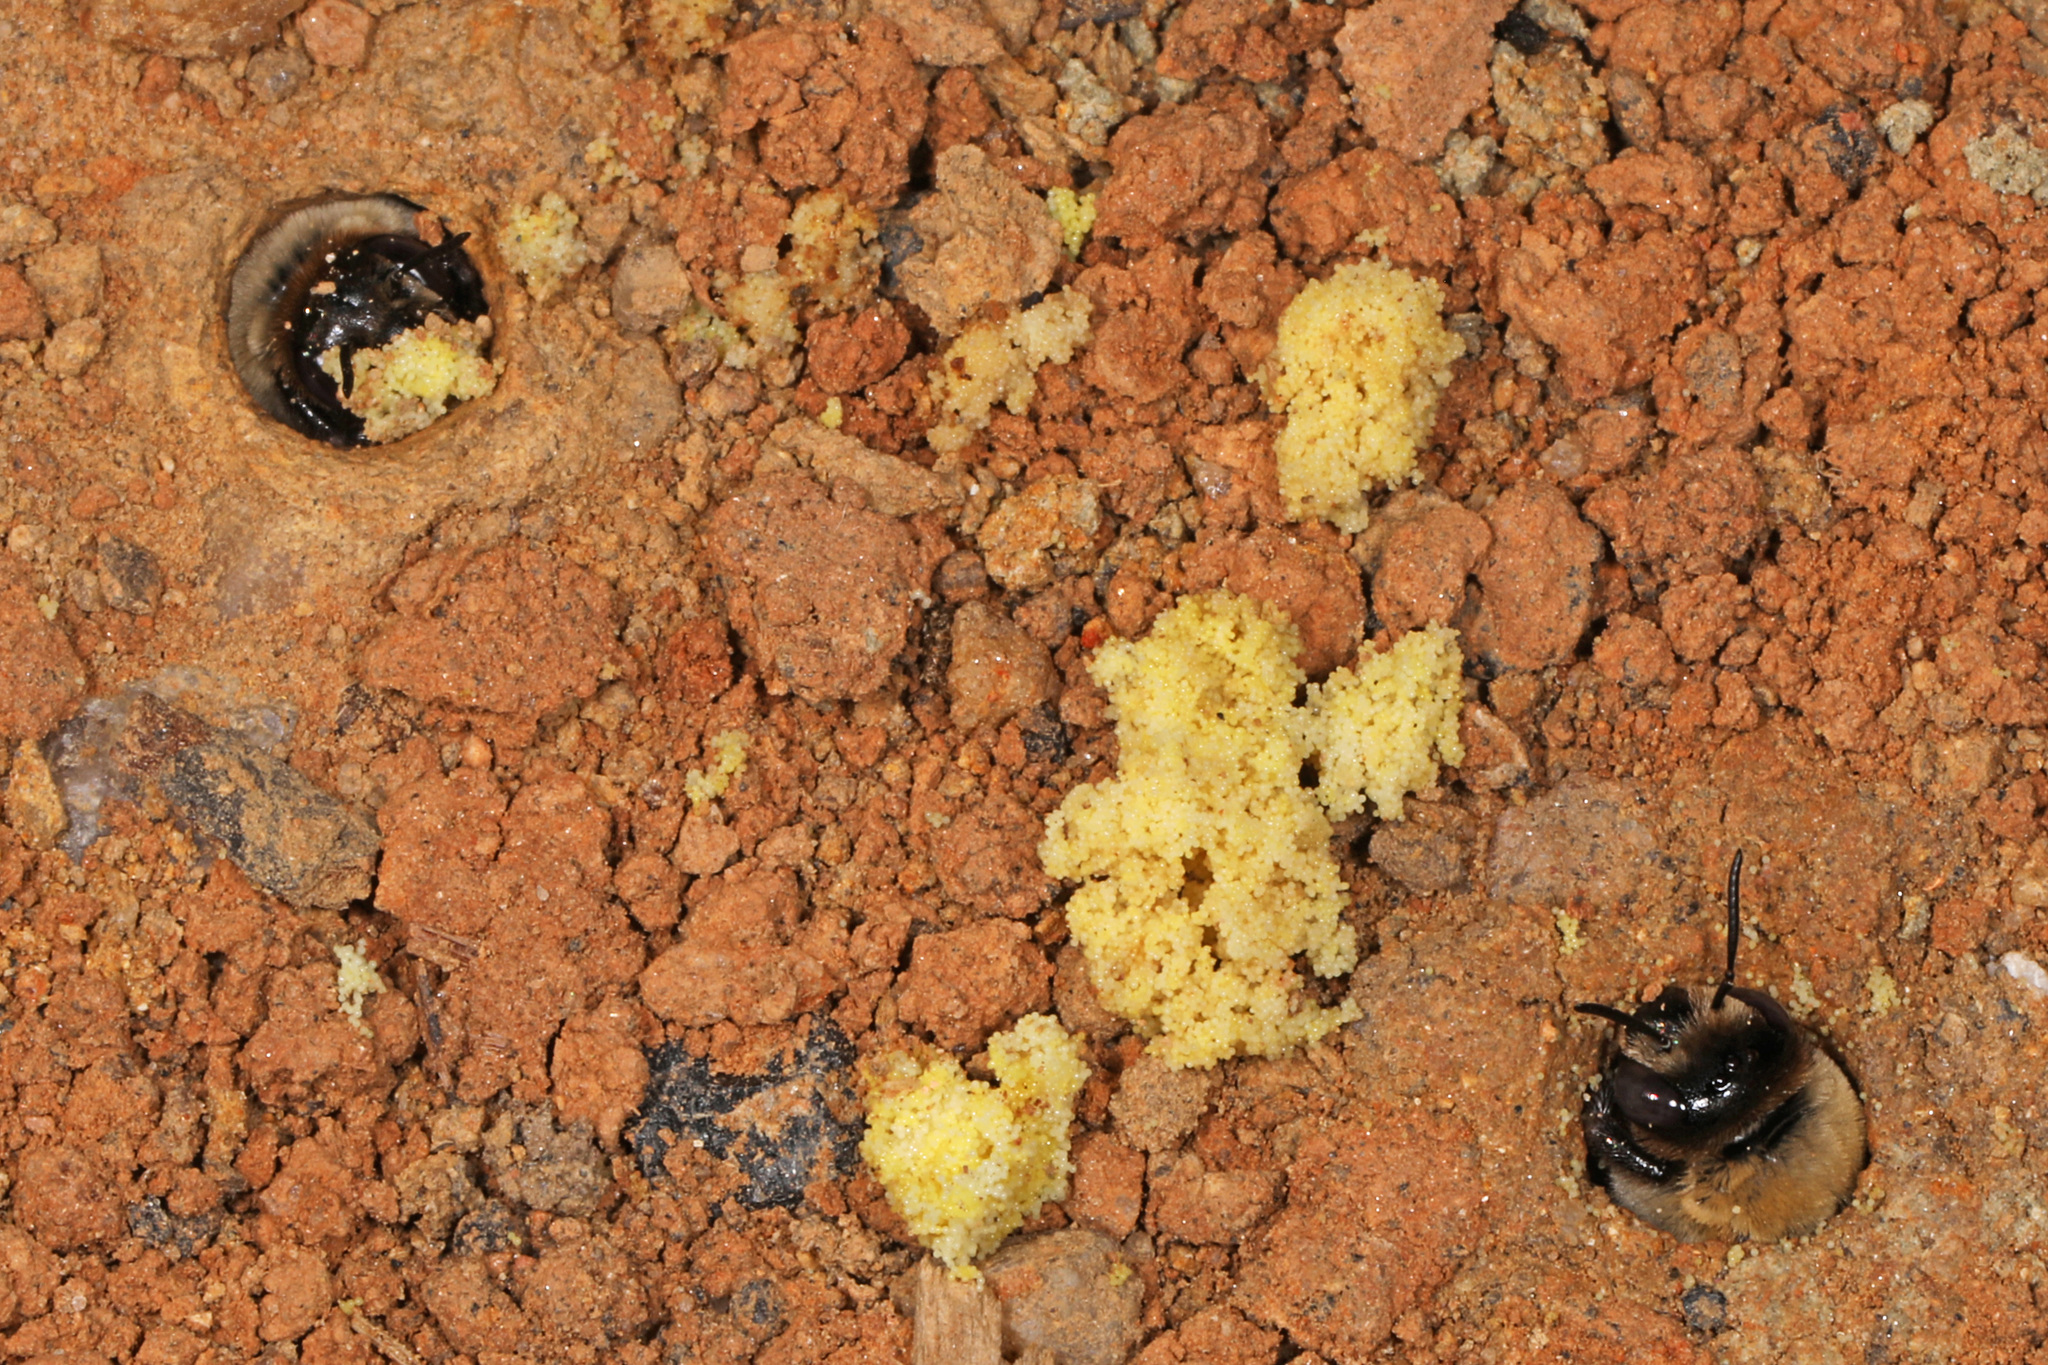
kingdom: Animalia
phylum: Arthropoda
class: Insecta
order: Hymenoptera
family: Apidae
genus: Ptilothrix
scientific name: Ptilothrix bombiformis
